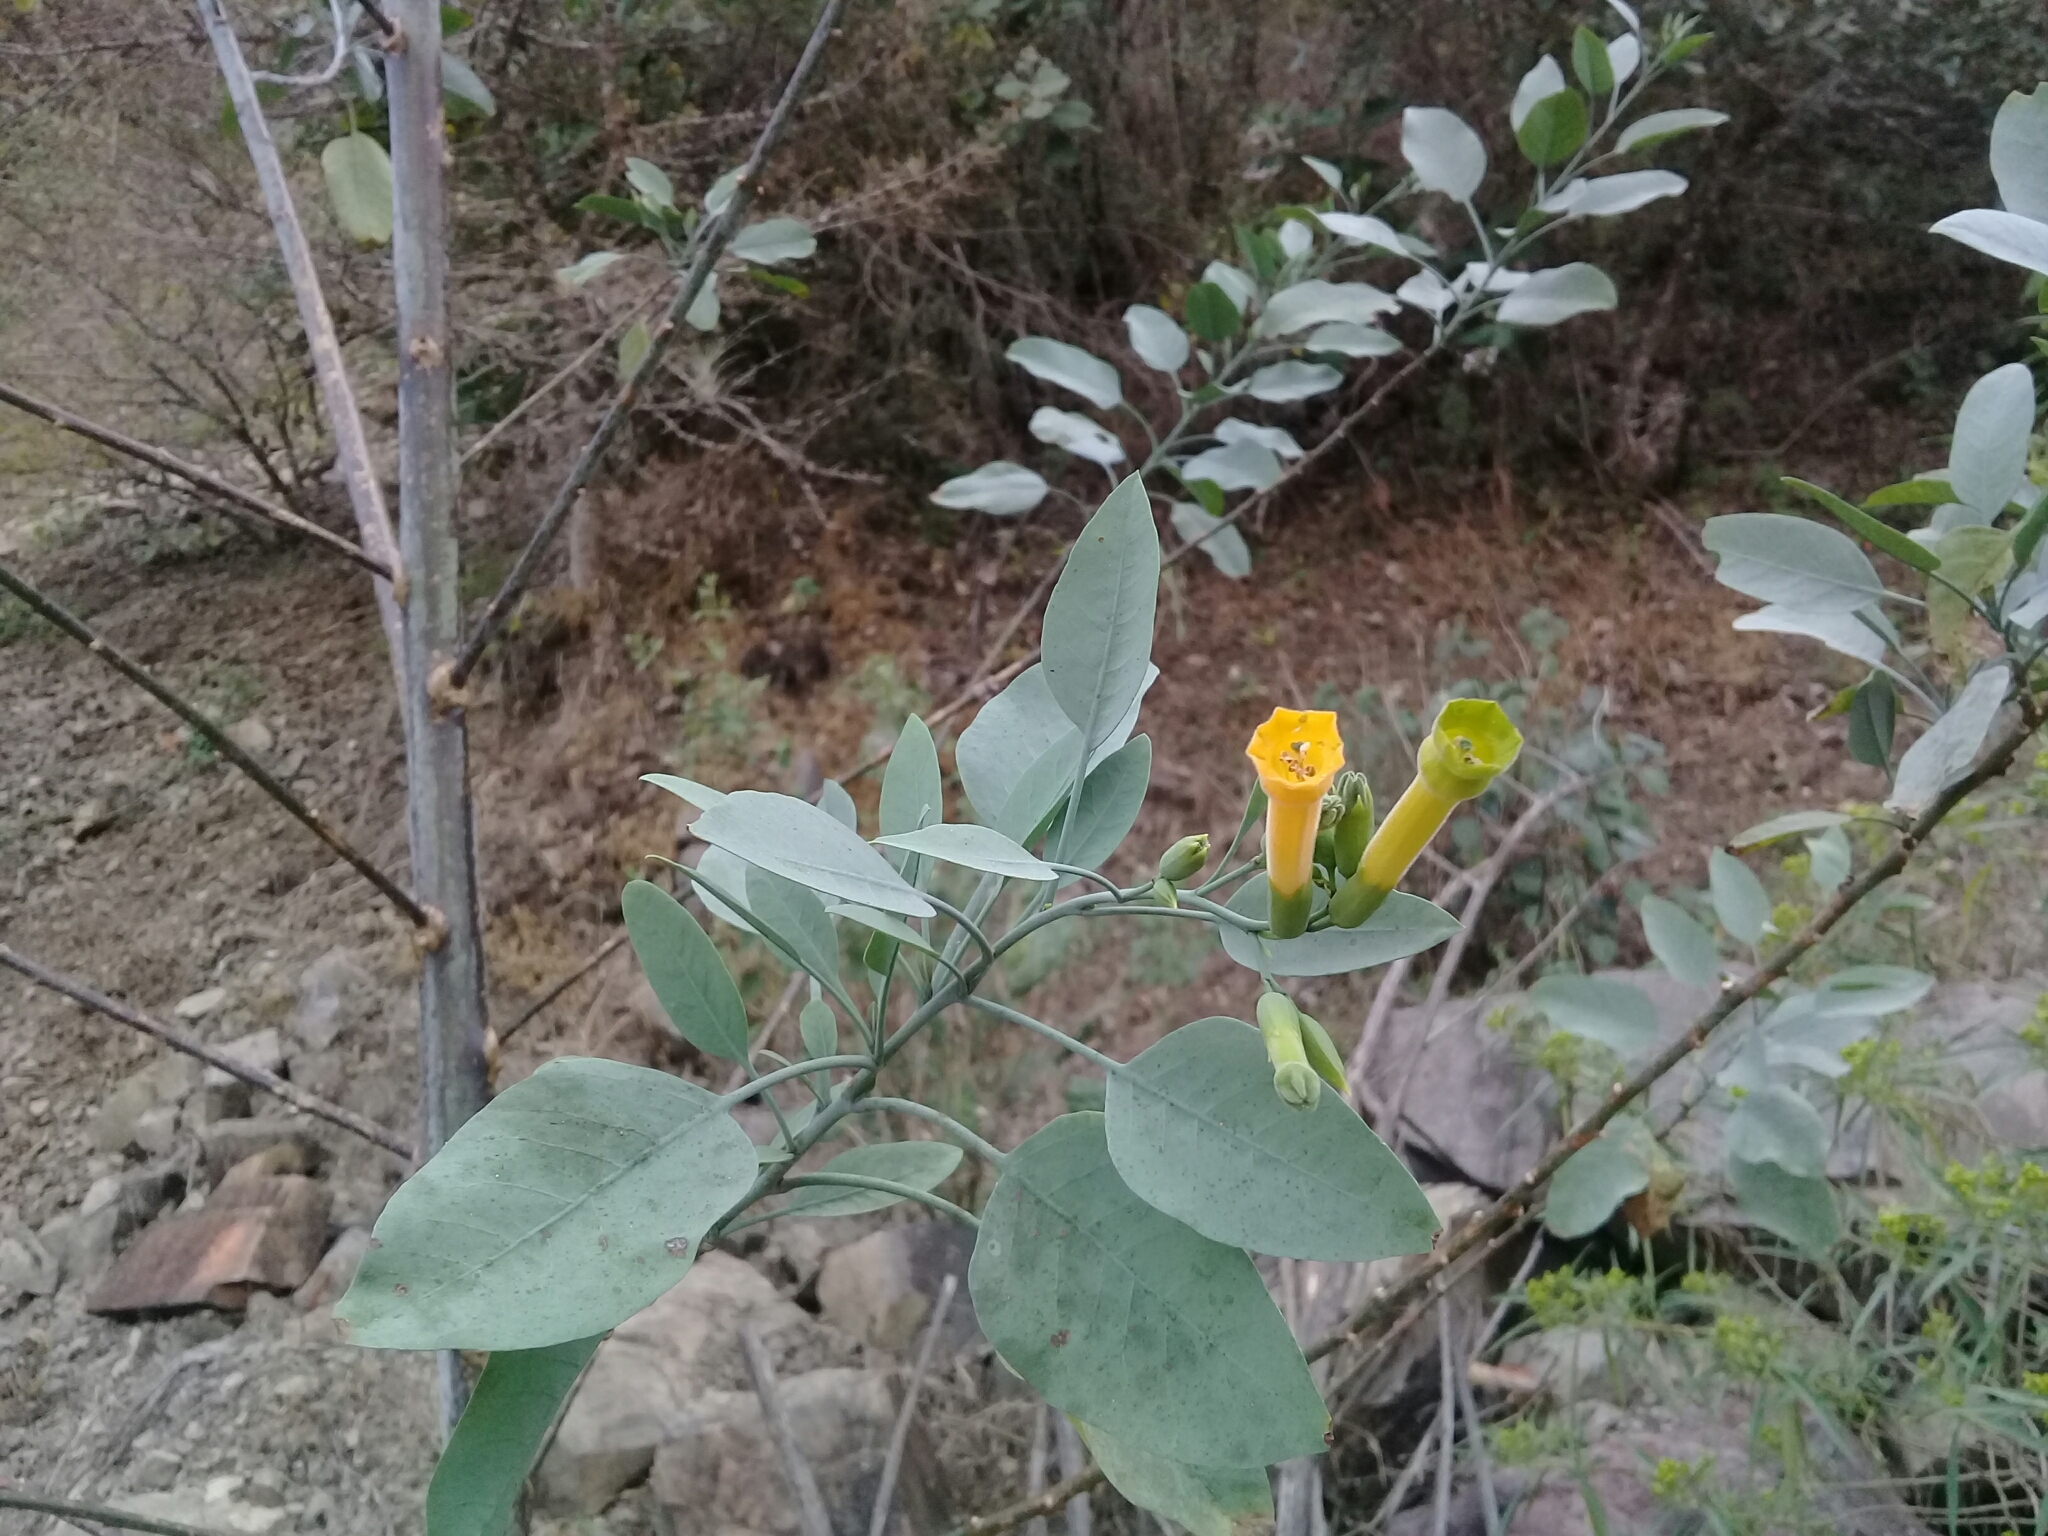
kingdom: Plantae
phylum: Tracheophyta
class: Magnoliopsida
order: Solanales
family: Solanaceae
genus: Nicotiana
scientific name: Nicotiana glauca
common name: Tree tobacco
